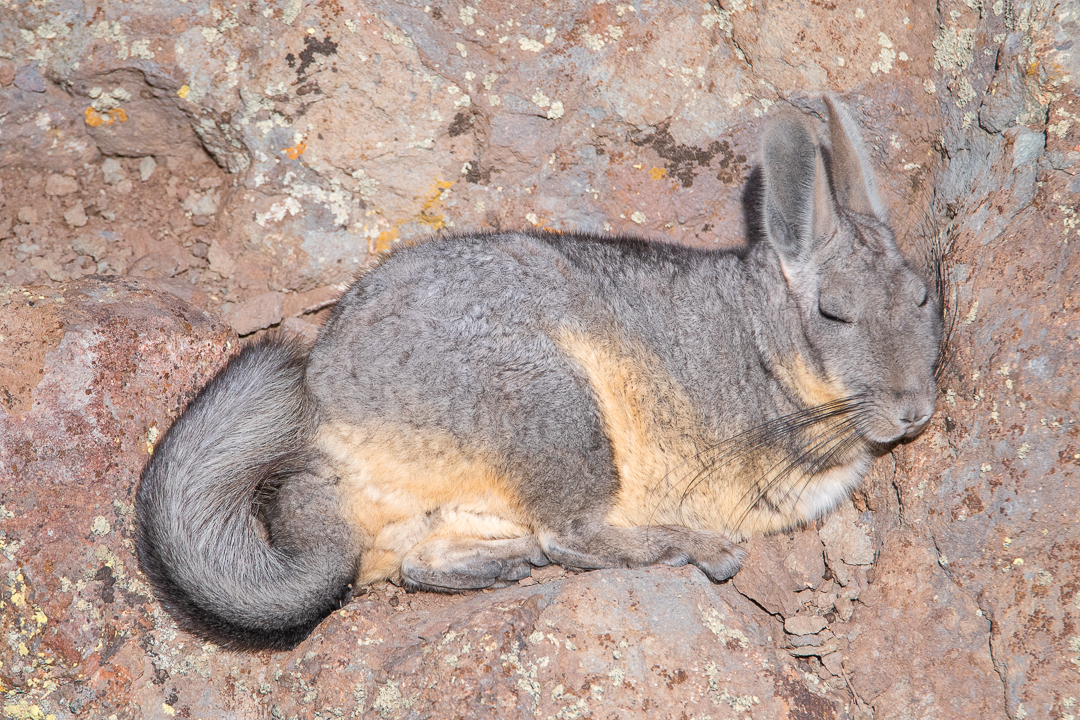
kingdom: Animalia
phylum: Chordata
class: Mammalia
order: Rodentia
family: Chinchillidae
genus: Lagidium
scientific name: Lagidium viscacia
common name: Southern viscacha
